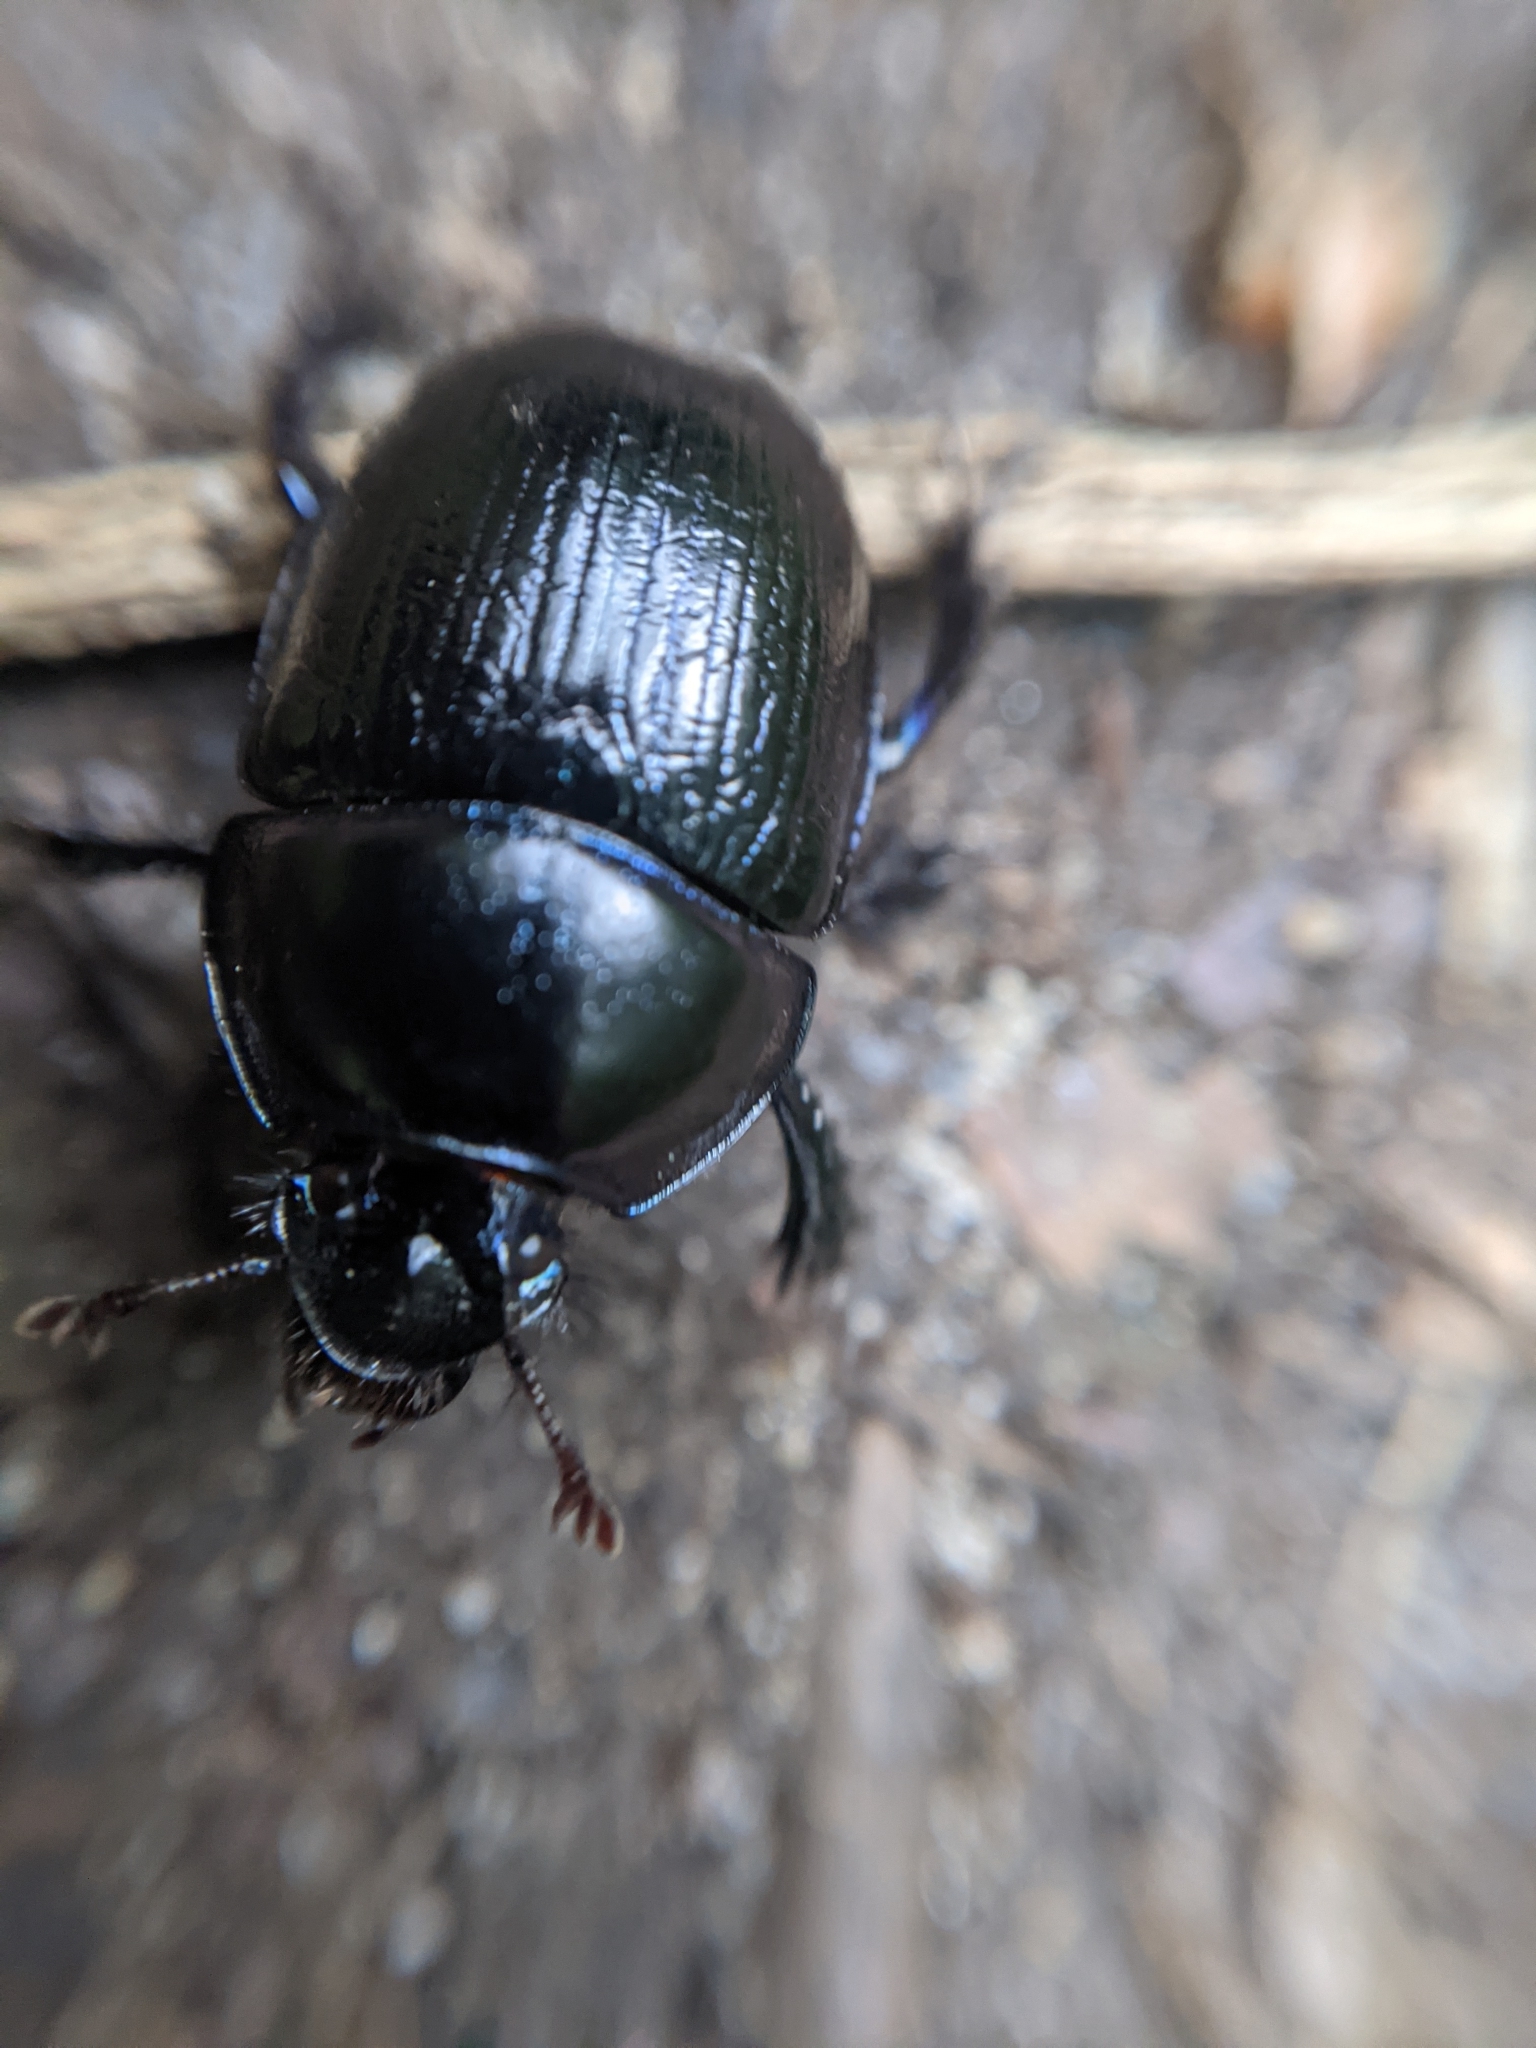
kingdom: Animalia
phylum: Arthropoda
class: Insecta
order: Coleoptera
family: Geotrupidae
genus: Anoplotrupes
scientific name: Anoplotrupes stercorosus
